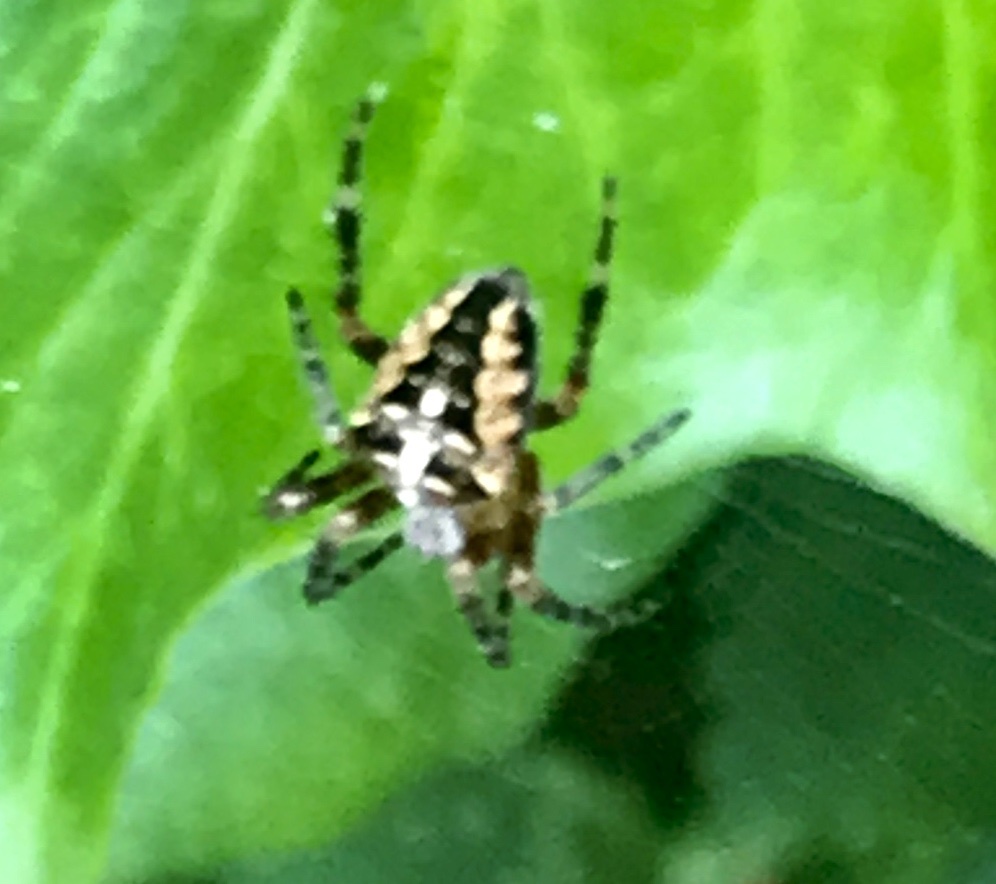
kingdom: Animalia
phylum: Arthropoda
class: Arachnida
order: Araneae
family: Araneidae
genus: Araneus
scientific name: Araneus diadematus
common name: Cross orbweaver
